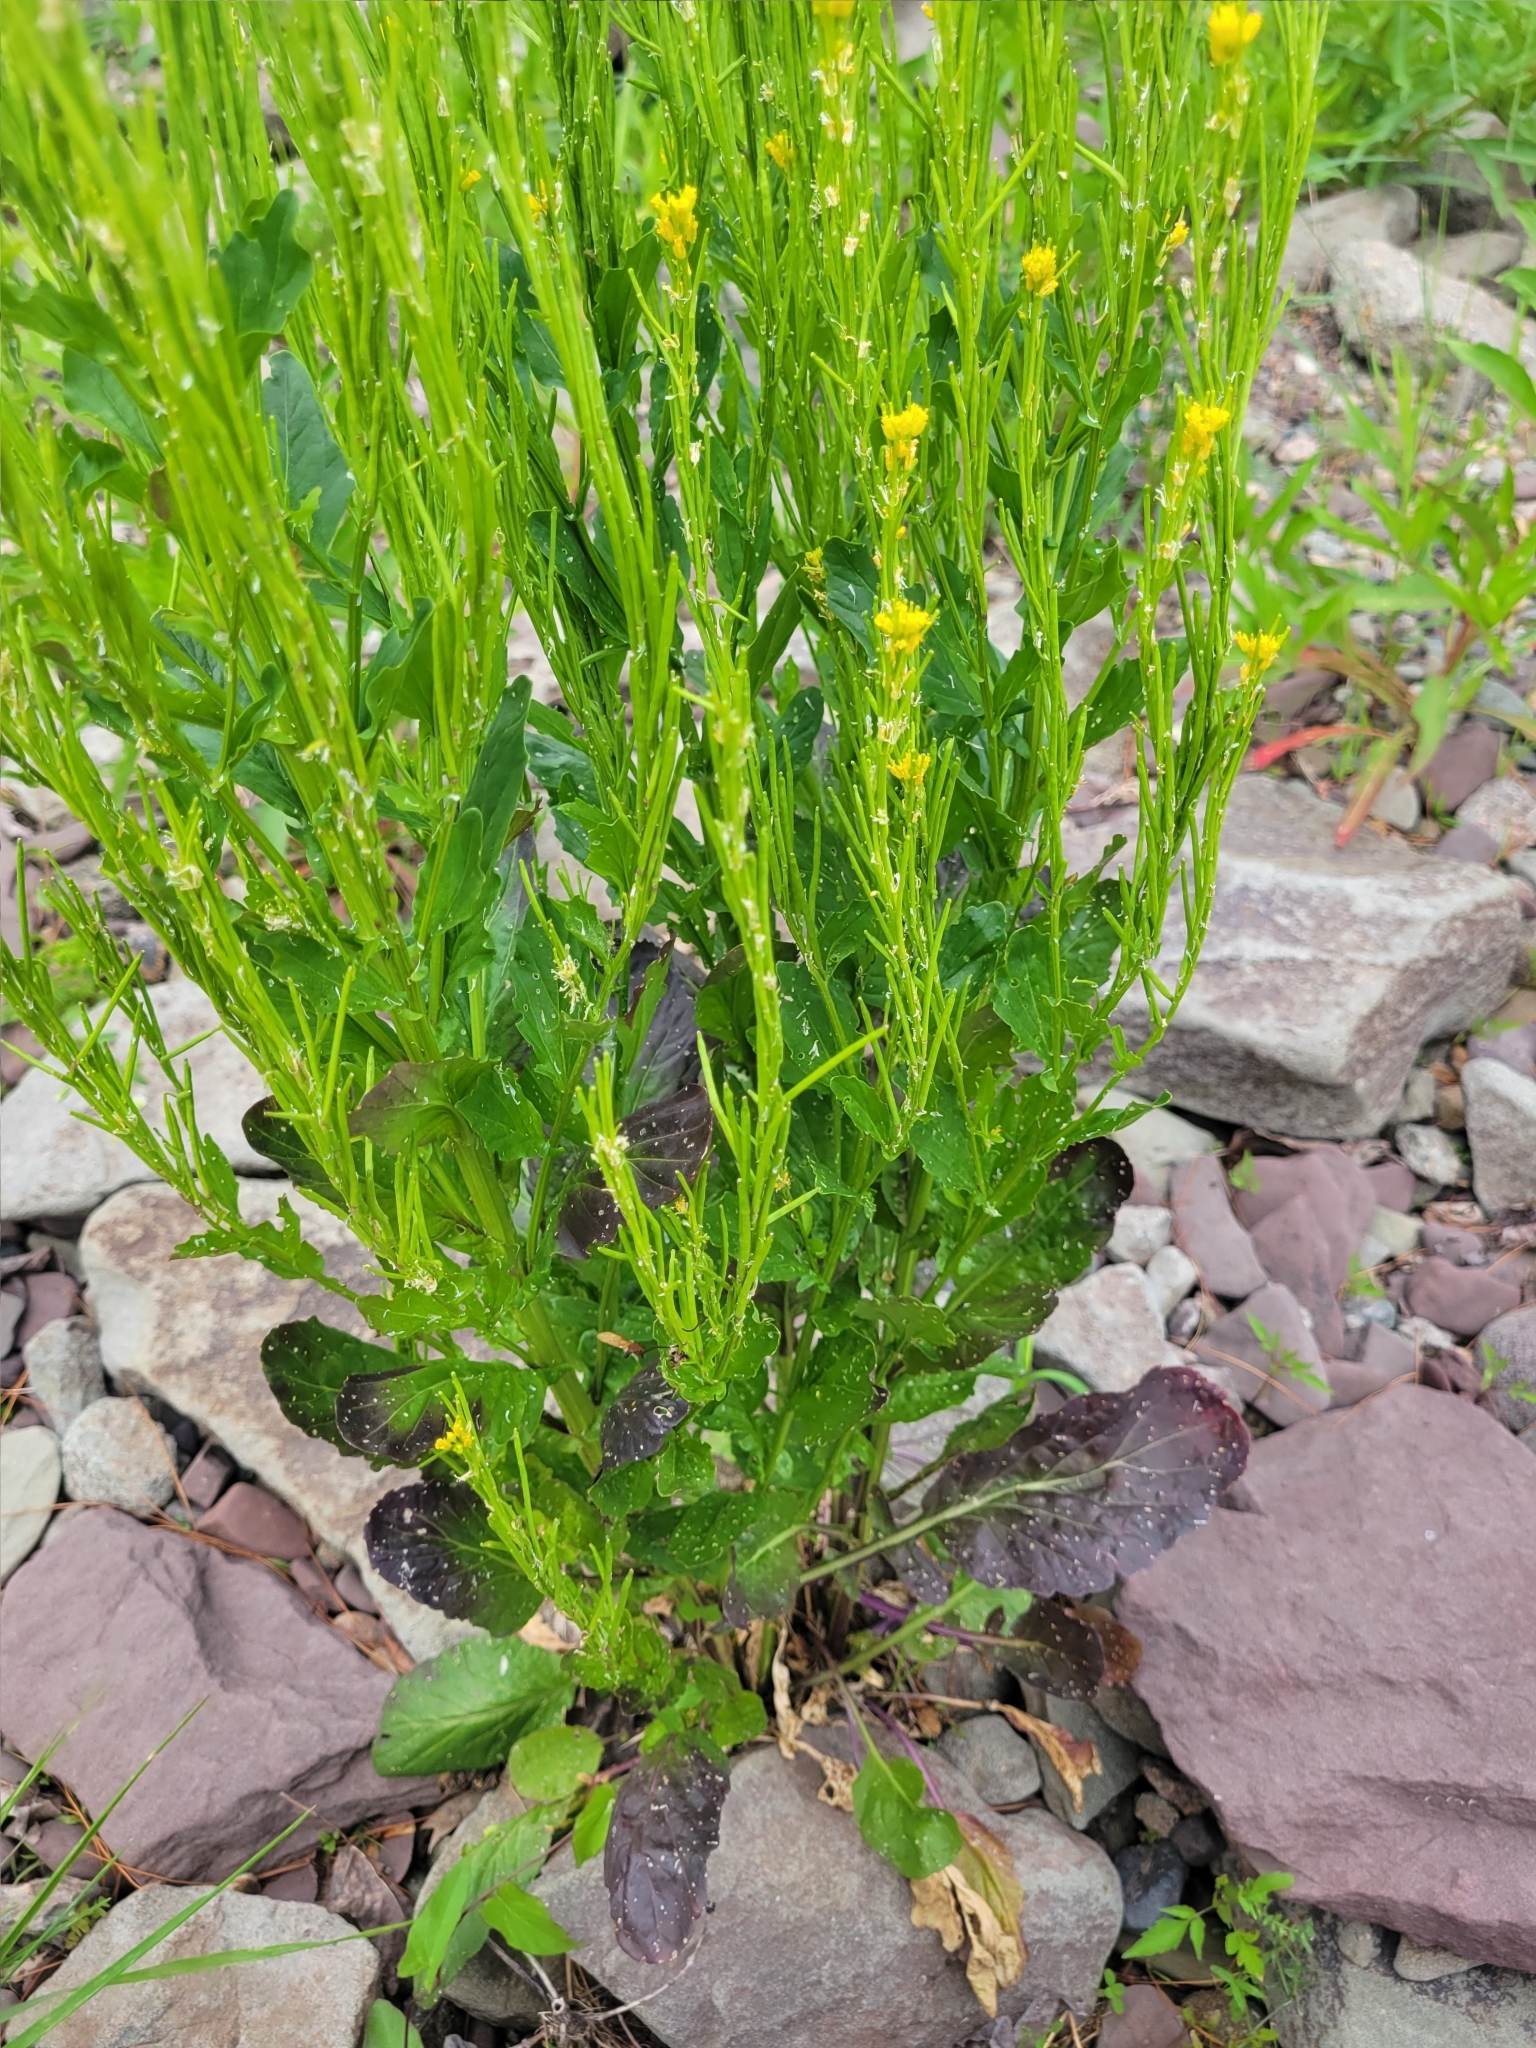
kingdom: Plantae
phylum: Tracheophyta
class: Magnoliopsida
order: Brassicales
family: Brassicaceae
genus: Barbarea
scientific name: Barbarea stricta
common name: Small-flowered winter-cress
